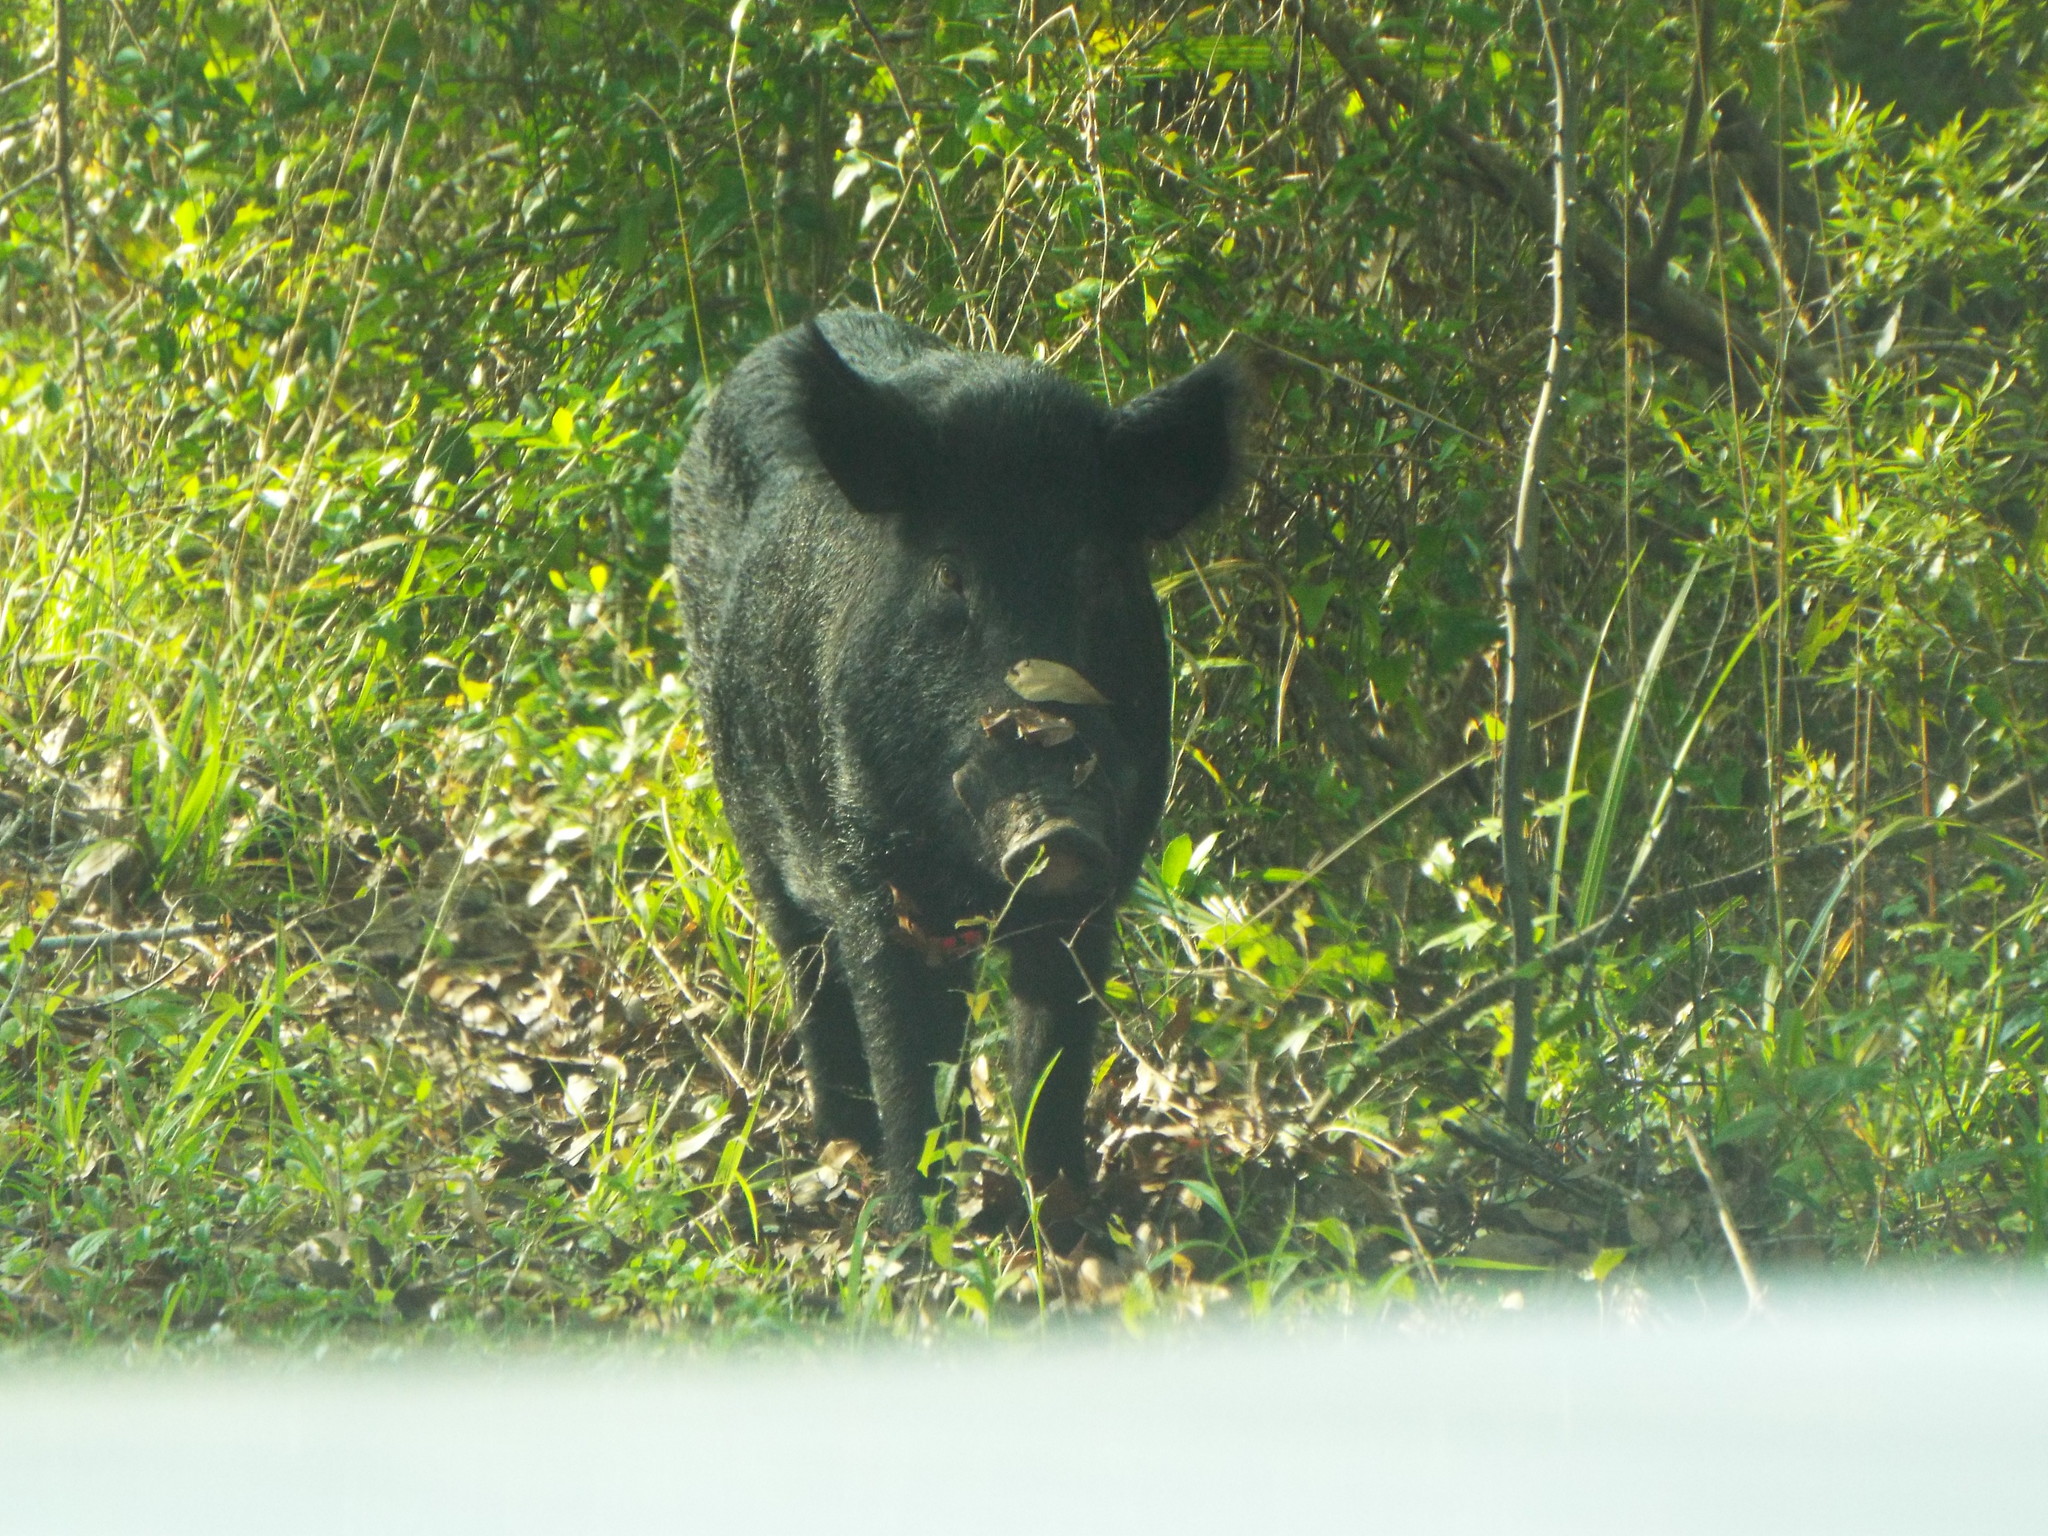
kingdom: Animalia
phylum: Chordata
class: Mammalia
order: Artiodactyla
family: Suidae
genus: Sus
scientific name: Sus scrofa
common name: Wild boar
